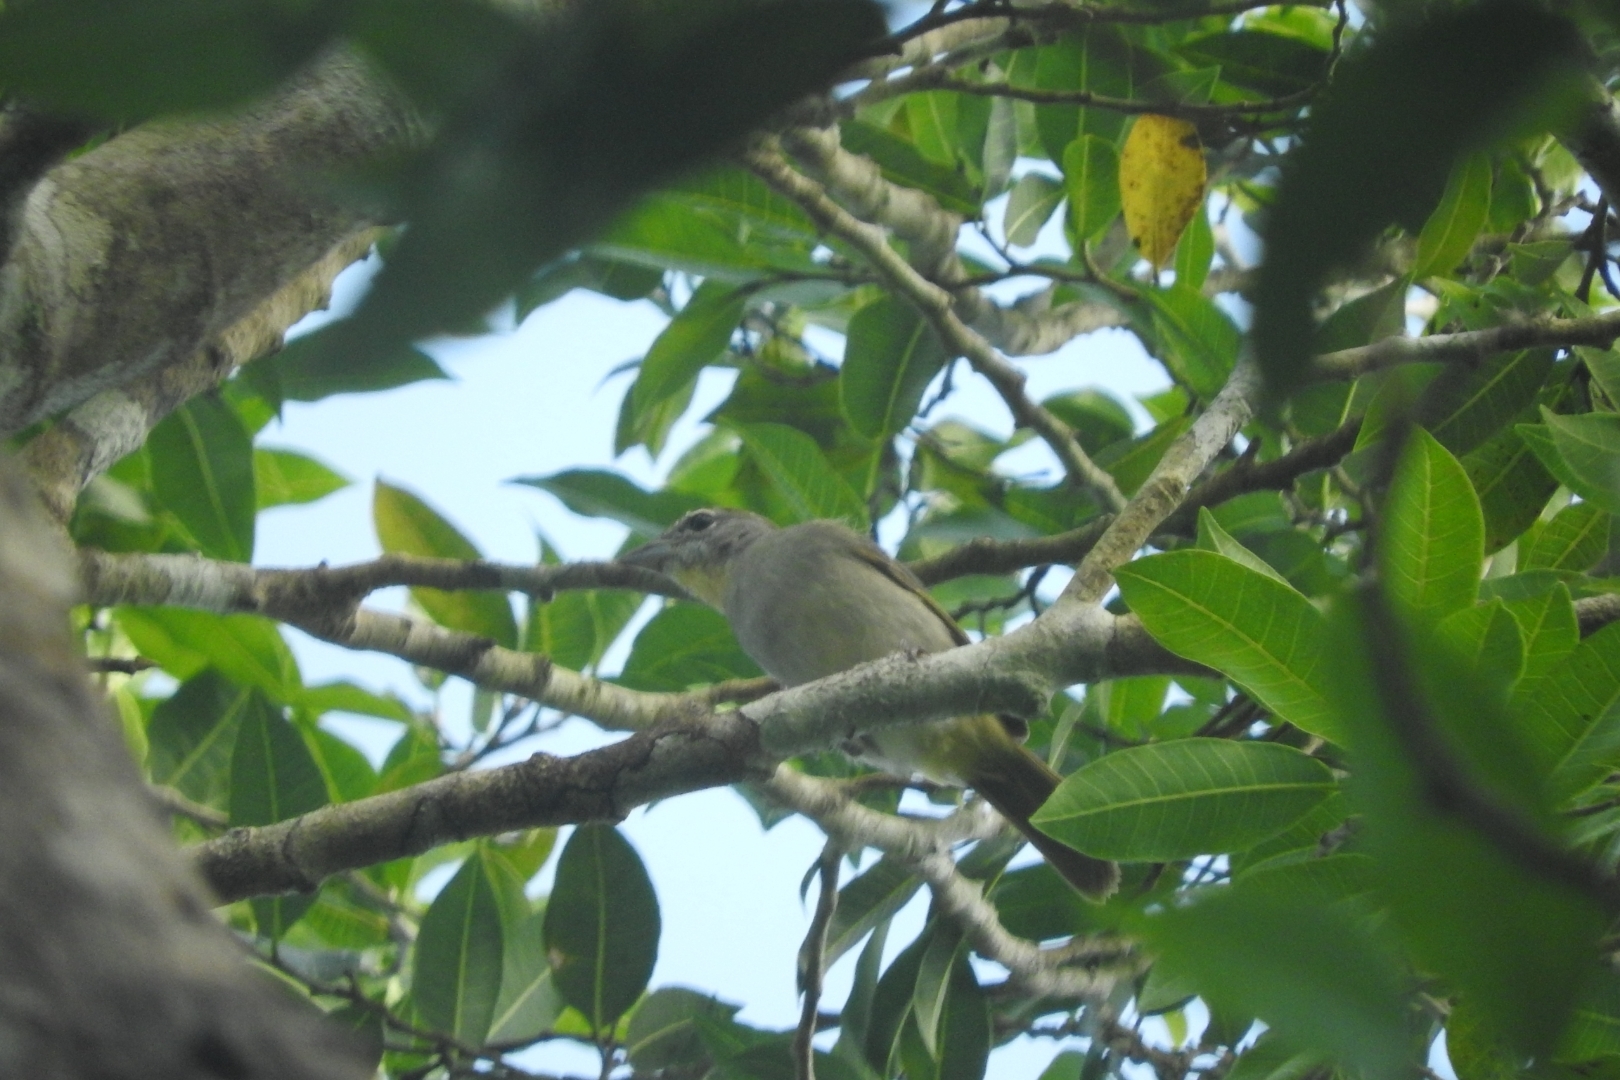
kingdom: Animalia
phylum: Chordata
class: Aves
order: Passeriformes
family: Cardinalidae
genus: Piranga
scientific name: Piranga roseogularis
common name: Rose-throated tanager
